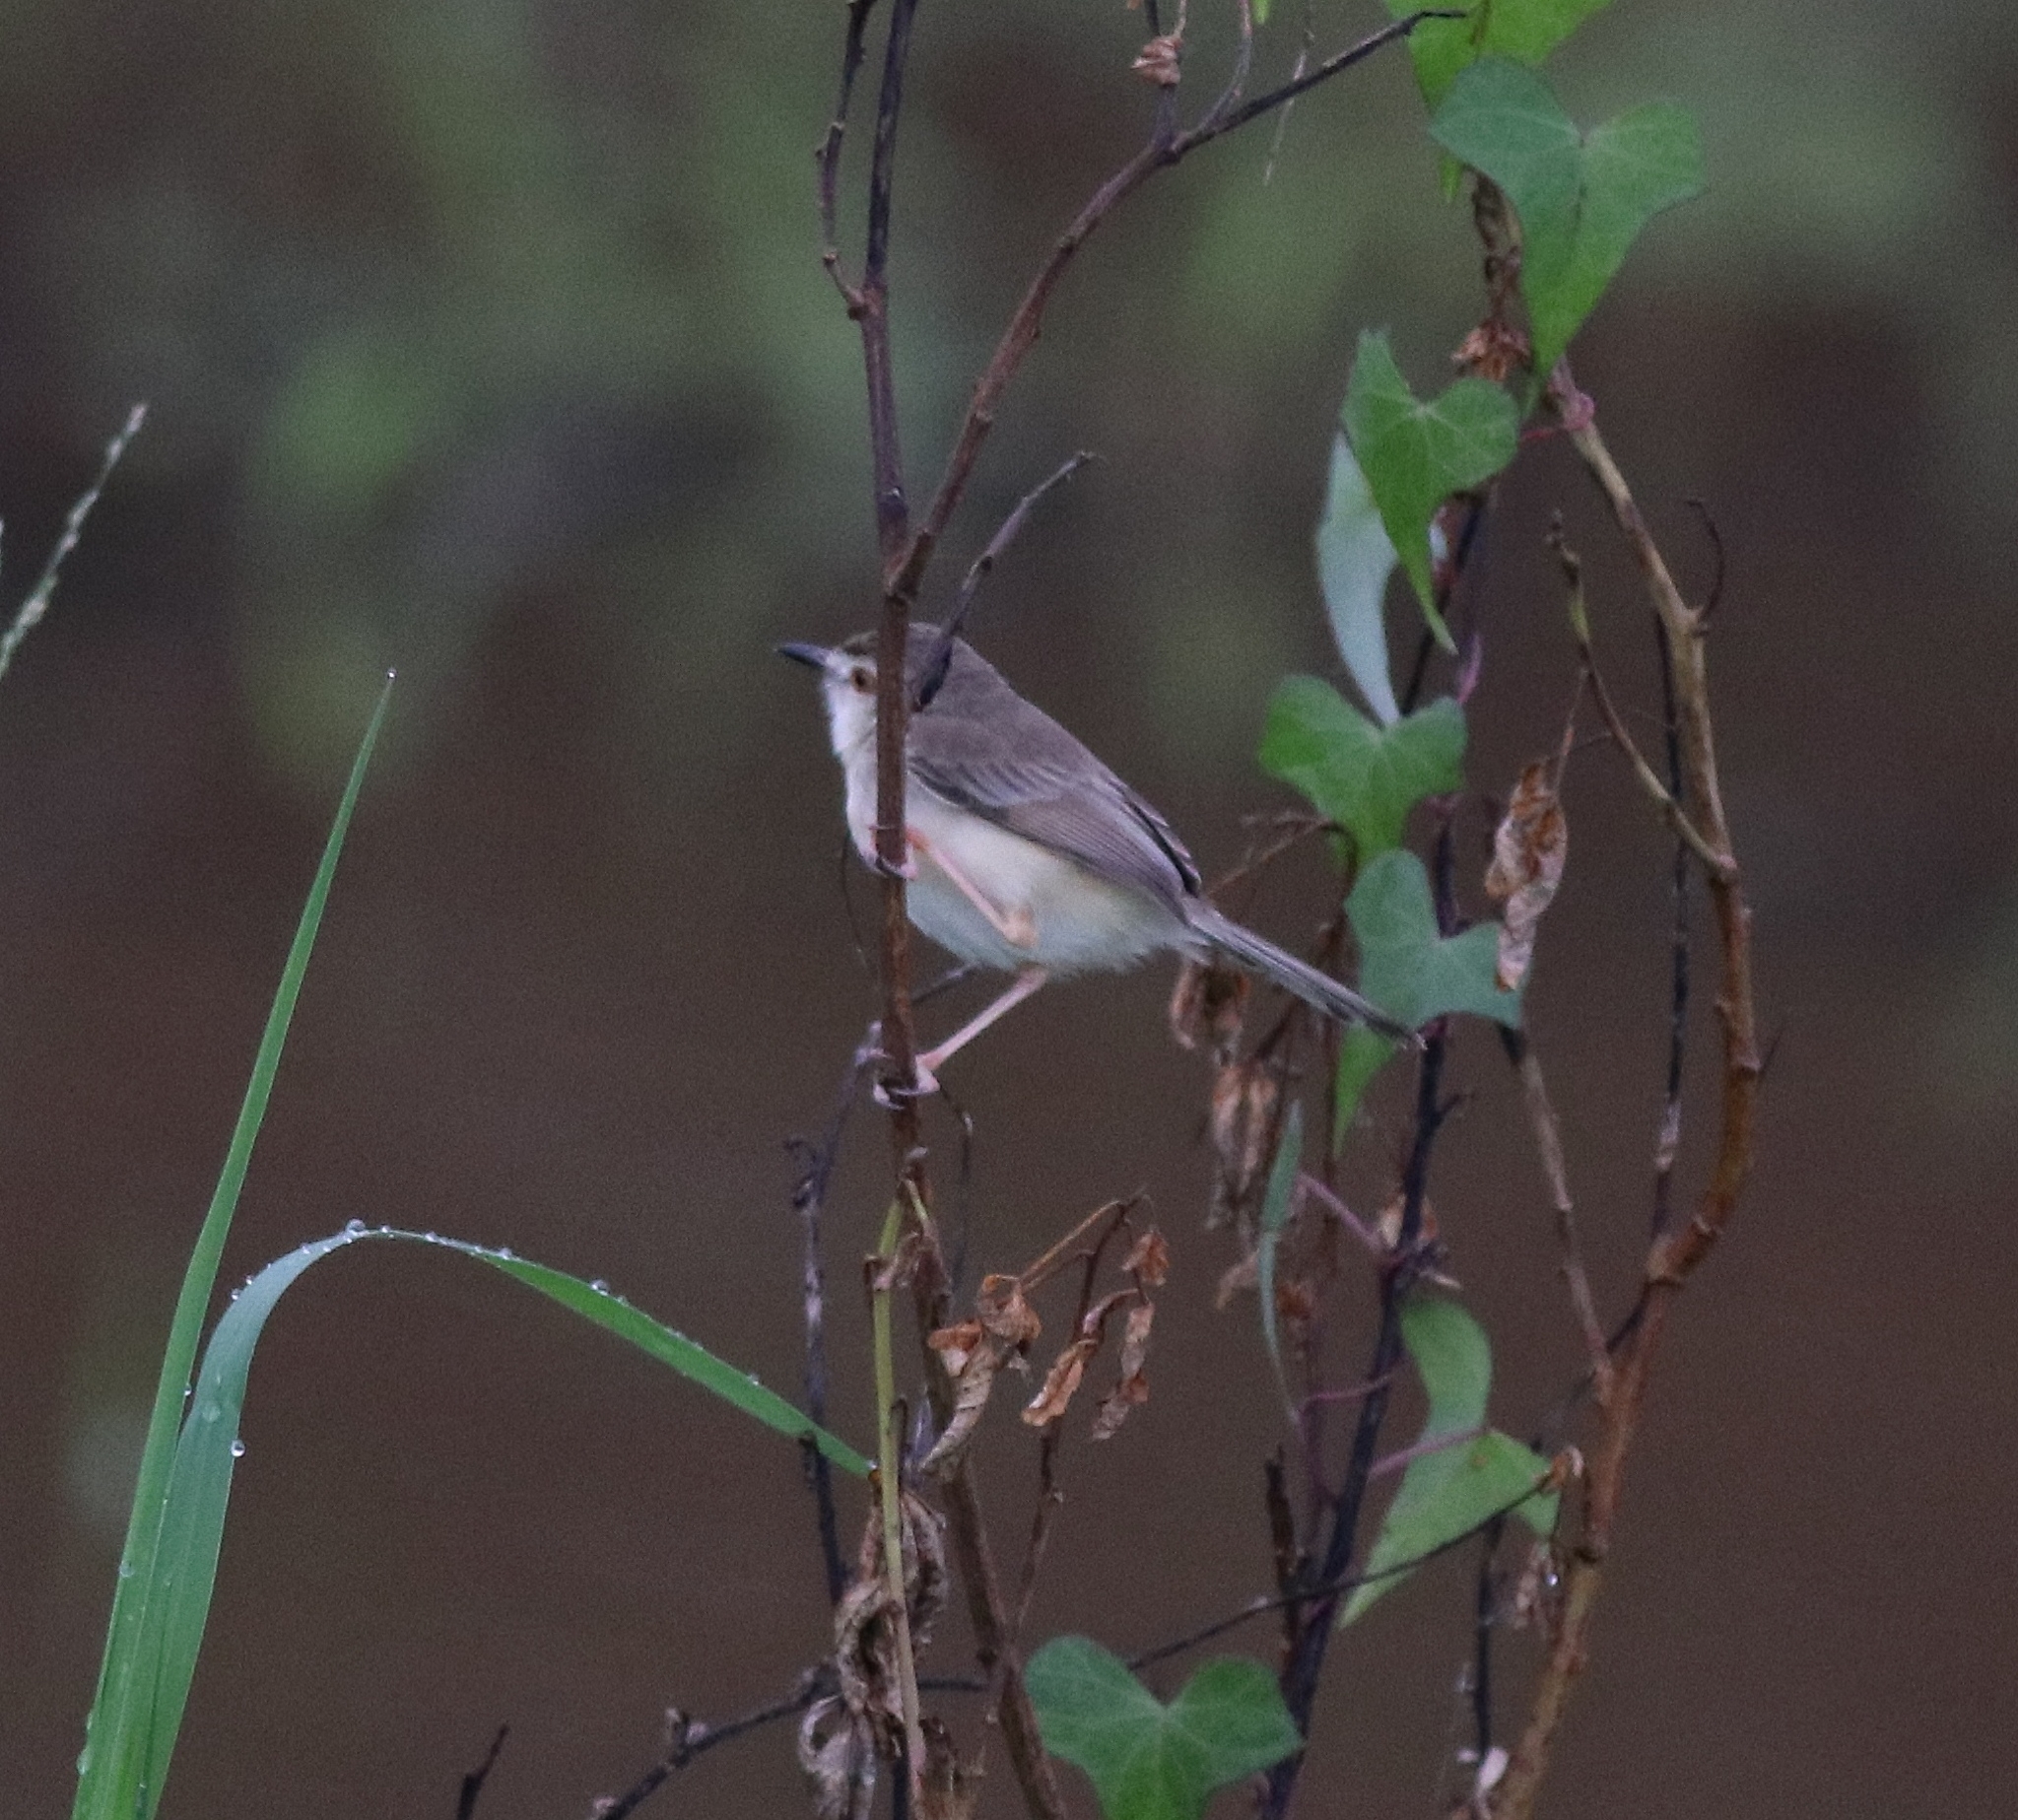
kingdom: Animalia
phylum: Chordata
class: Aves
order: Passeriformes
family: Cisticolidae
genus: Prinia
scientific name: Prinia inornata
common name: Plain prinia
